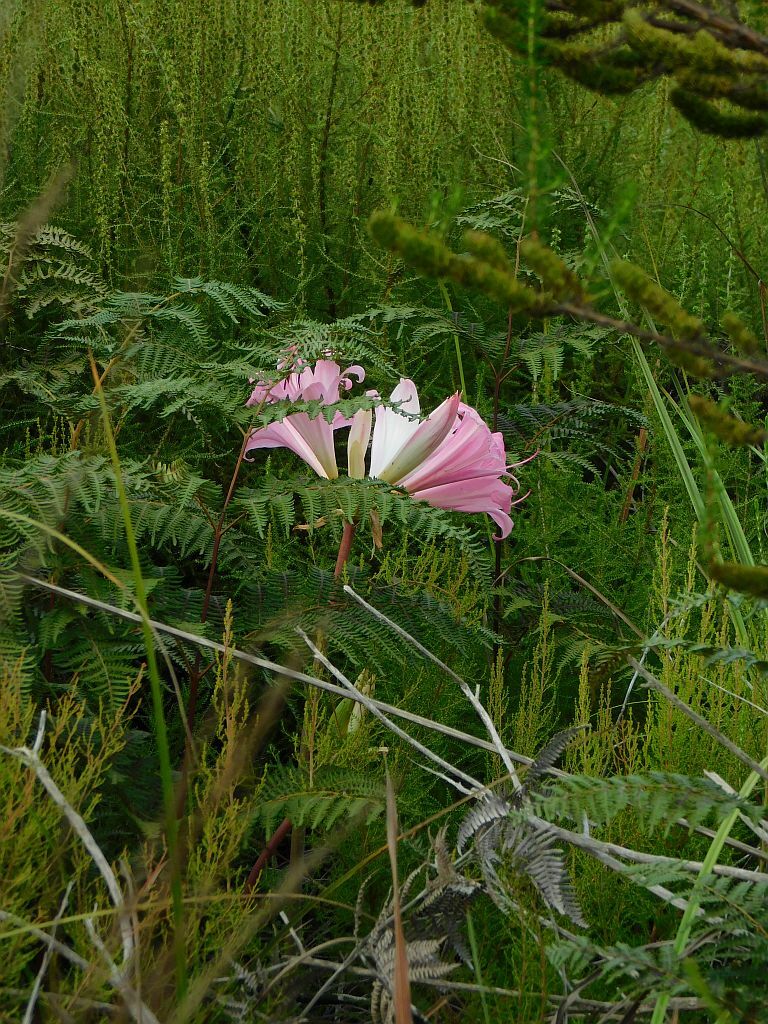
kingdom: Plantae
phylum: Tracheophyta
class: Liliopsida
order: Asparagales
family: Amaryllidaceae
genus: Amaryllis
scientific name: Amaryllis belladonna
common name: Jersey lily
